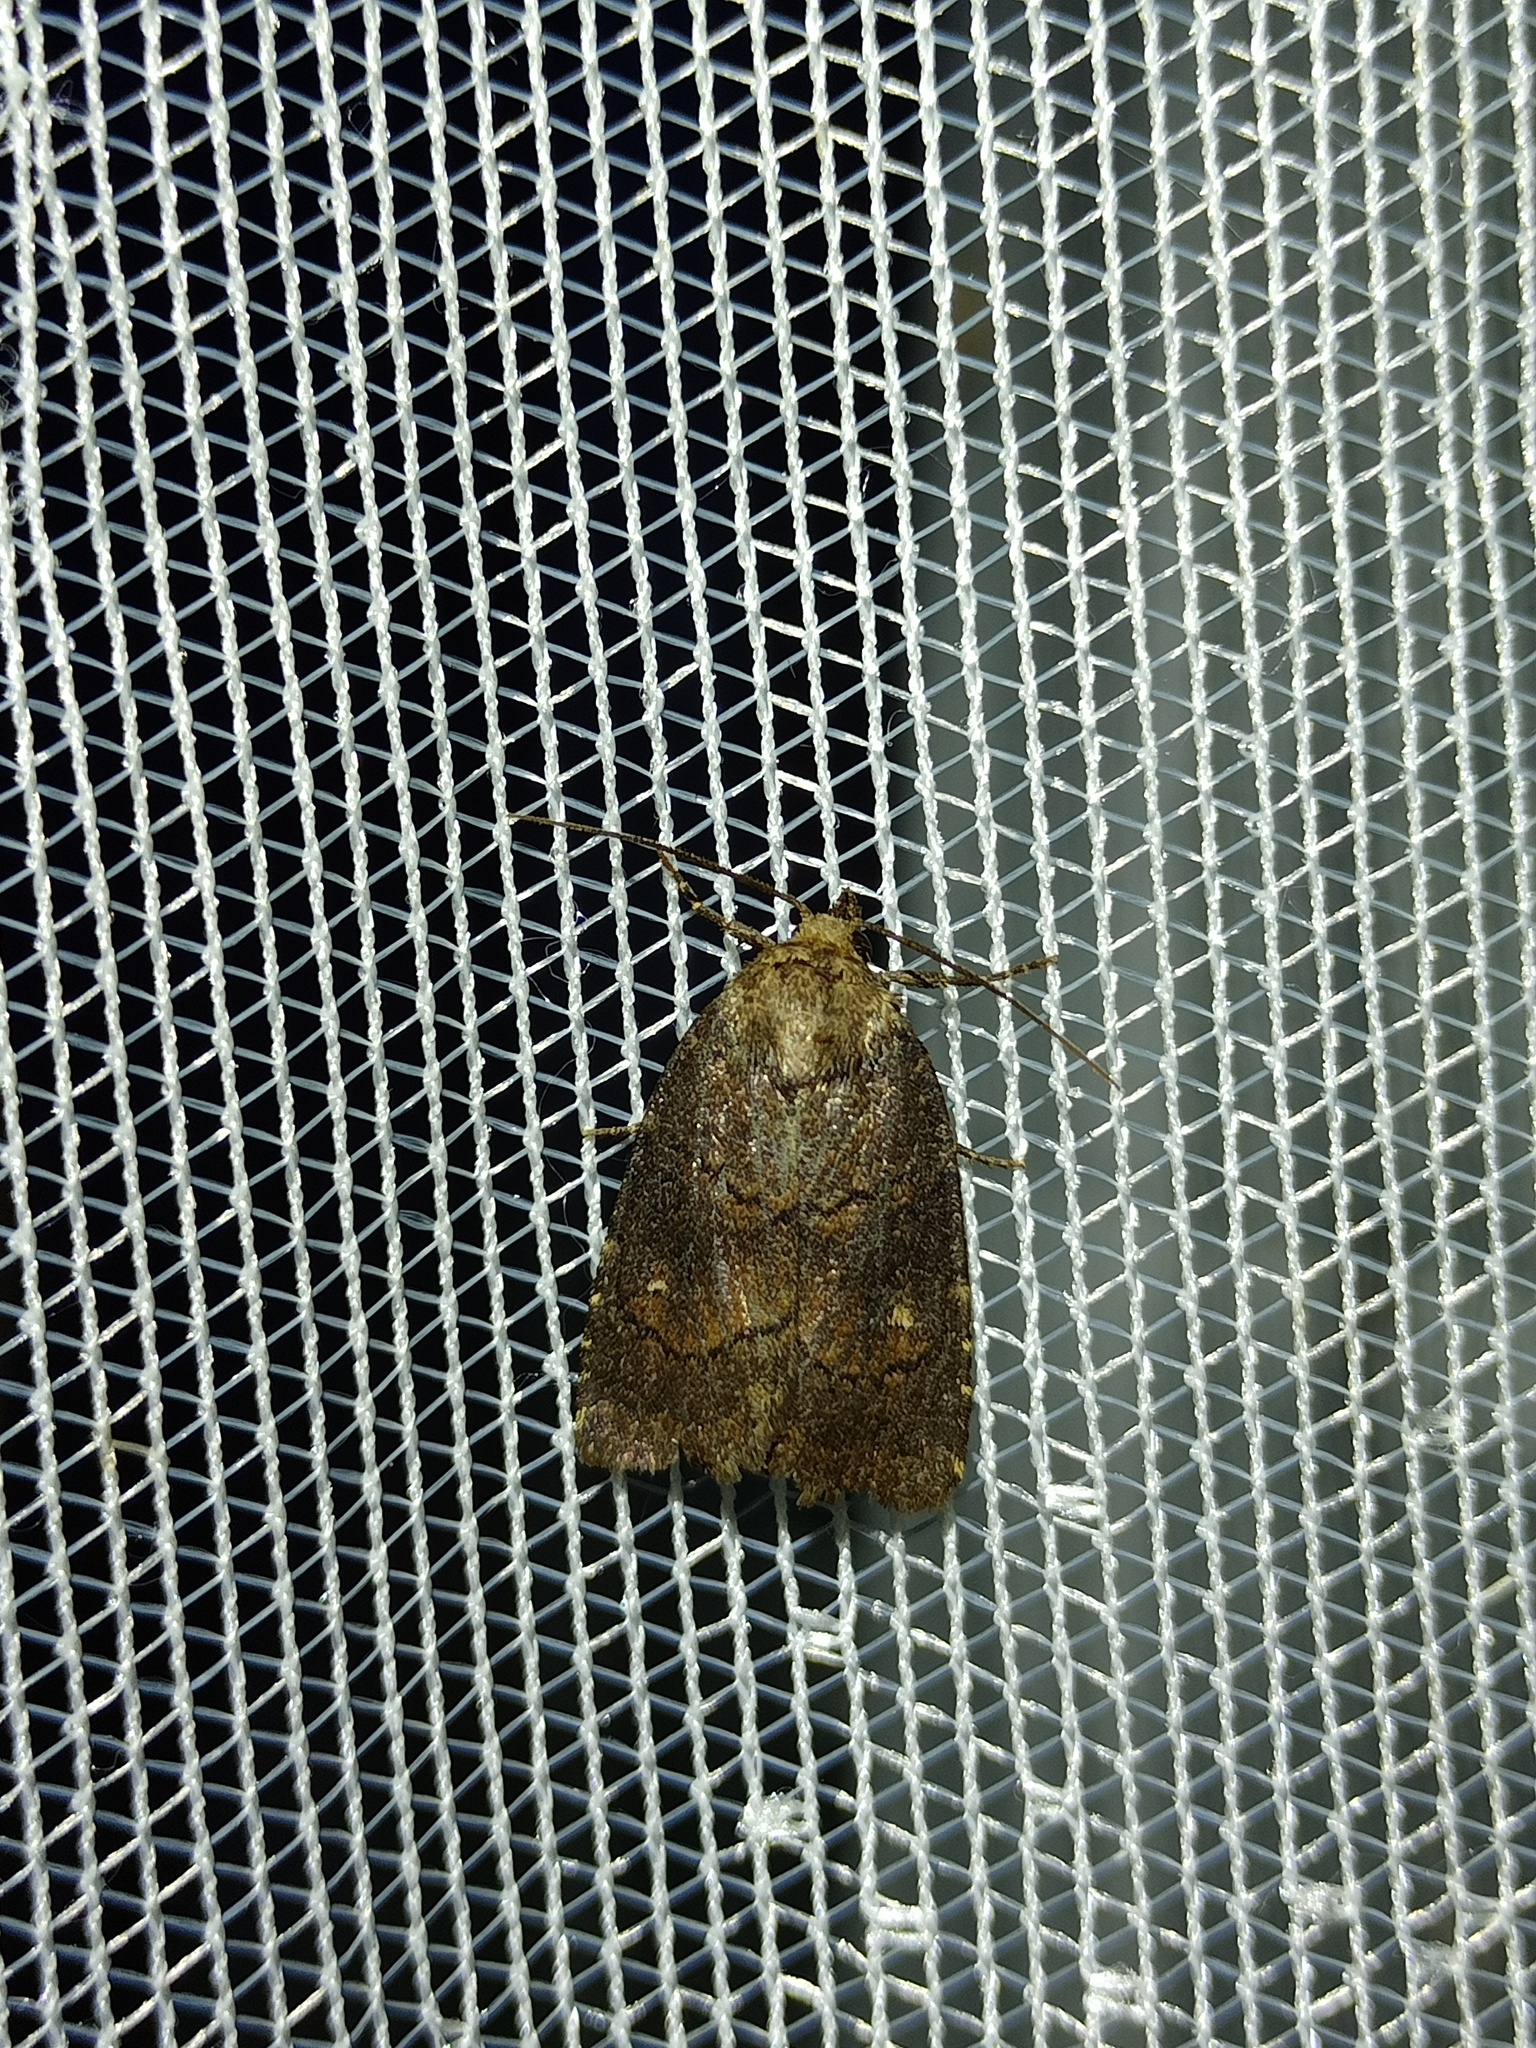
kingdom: Animalia
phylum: Arthropoda
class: Insecta
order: Lepidoptera
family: Noctuidae
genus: Charanyca
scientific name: Charanyca ferruginea
